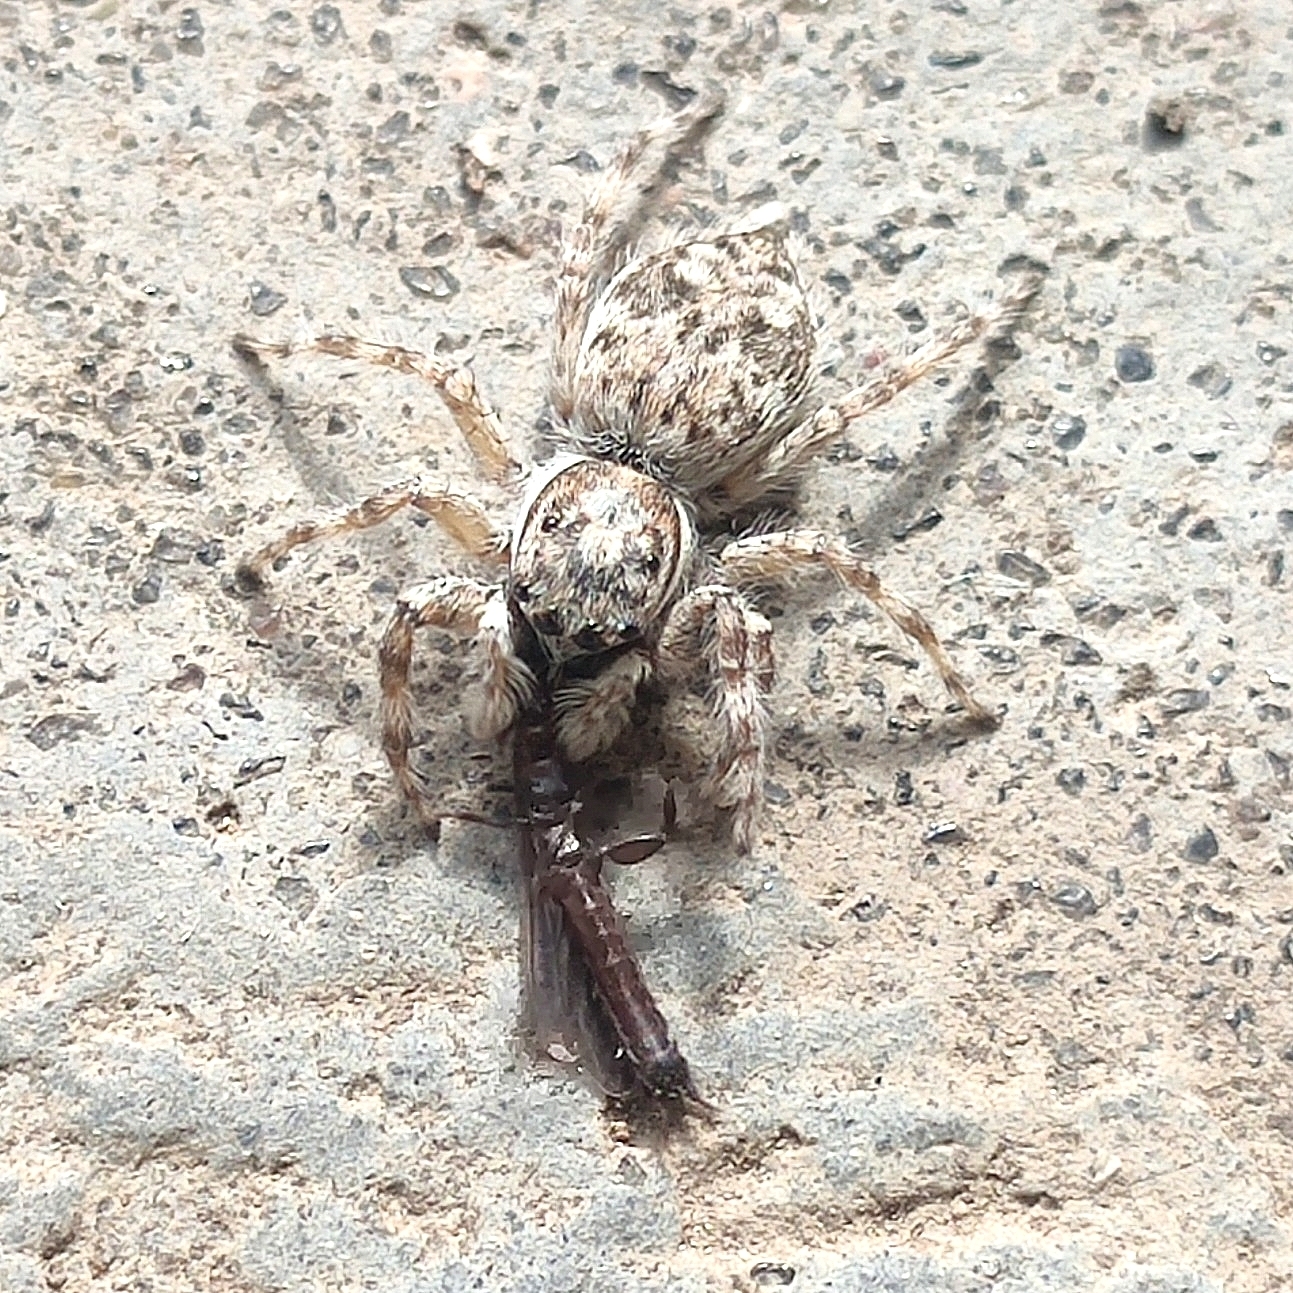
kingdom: Animalia
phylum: Arthropoda
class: Arachnida
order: Araneae
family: Salticidae
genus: Menemerus
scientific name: Menemerus nigli
